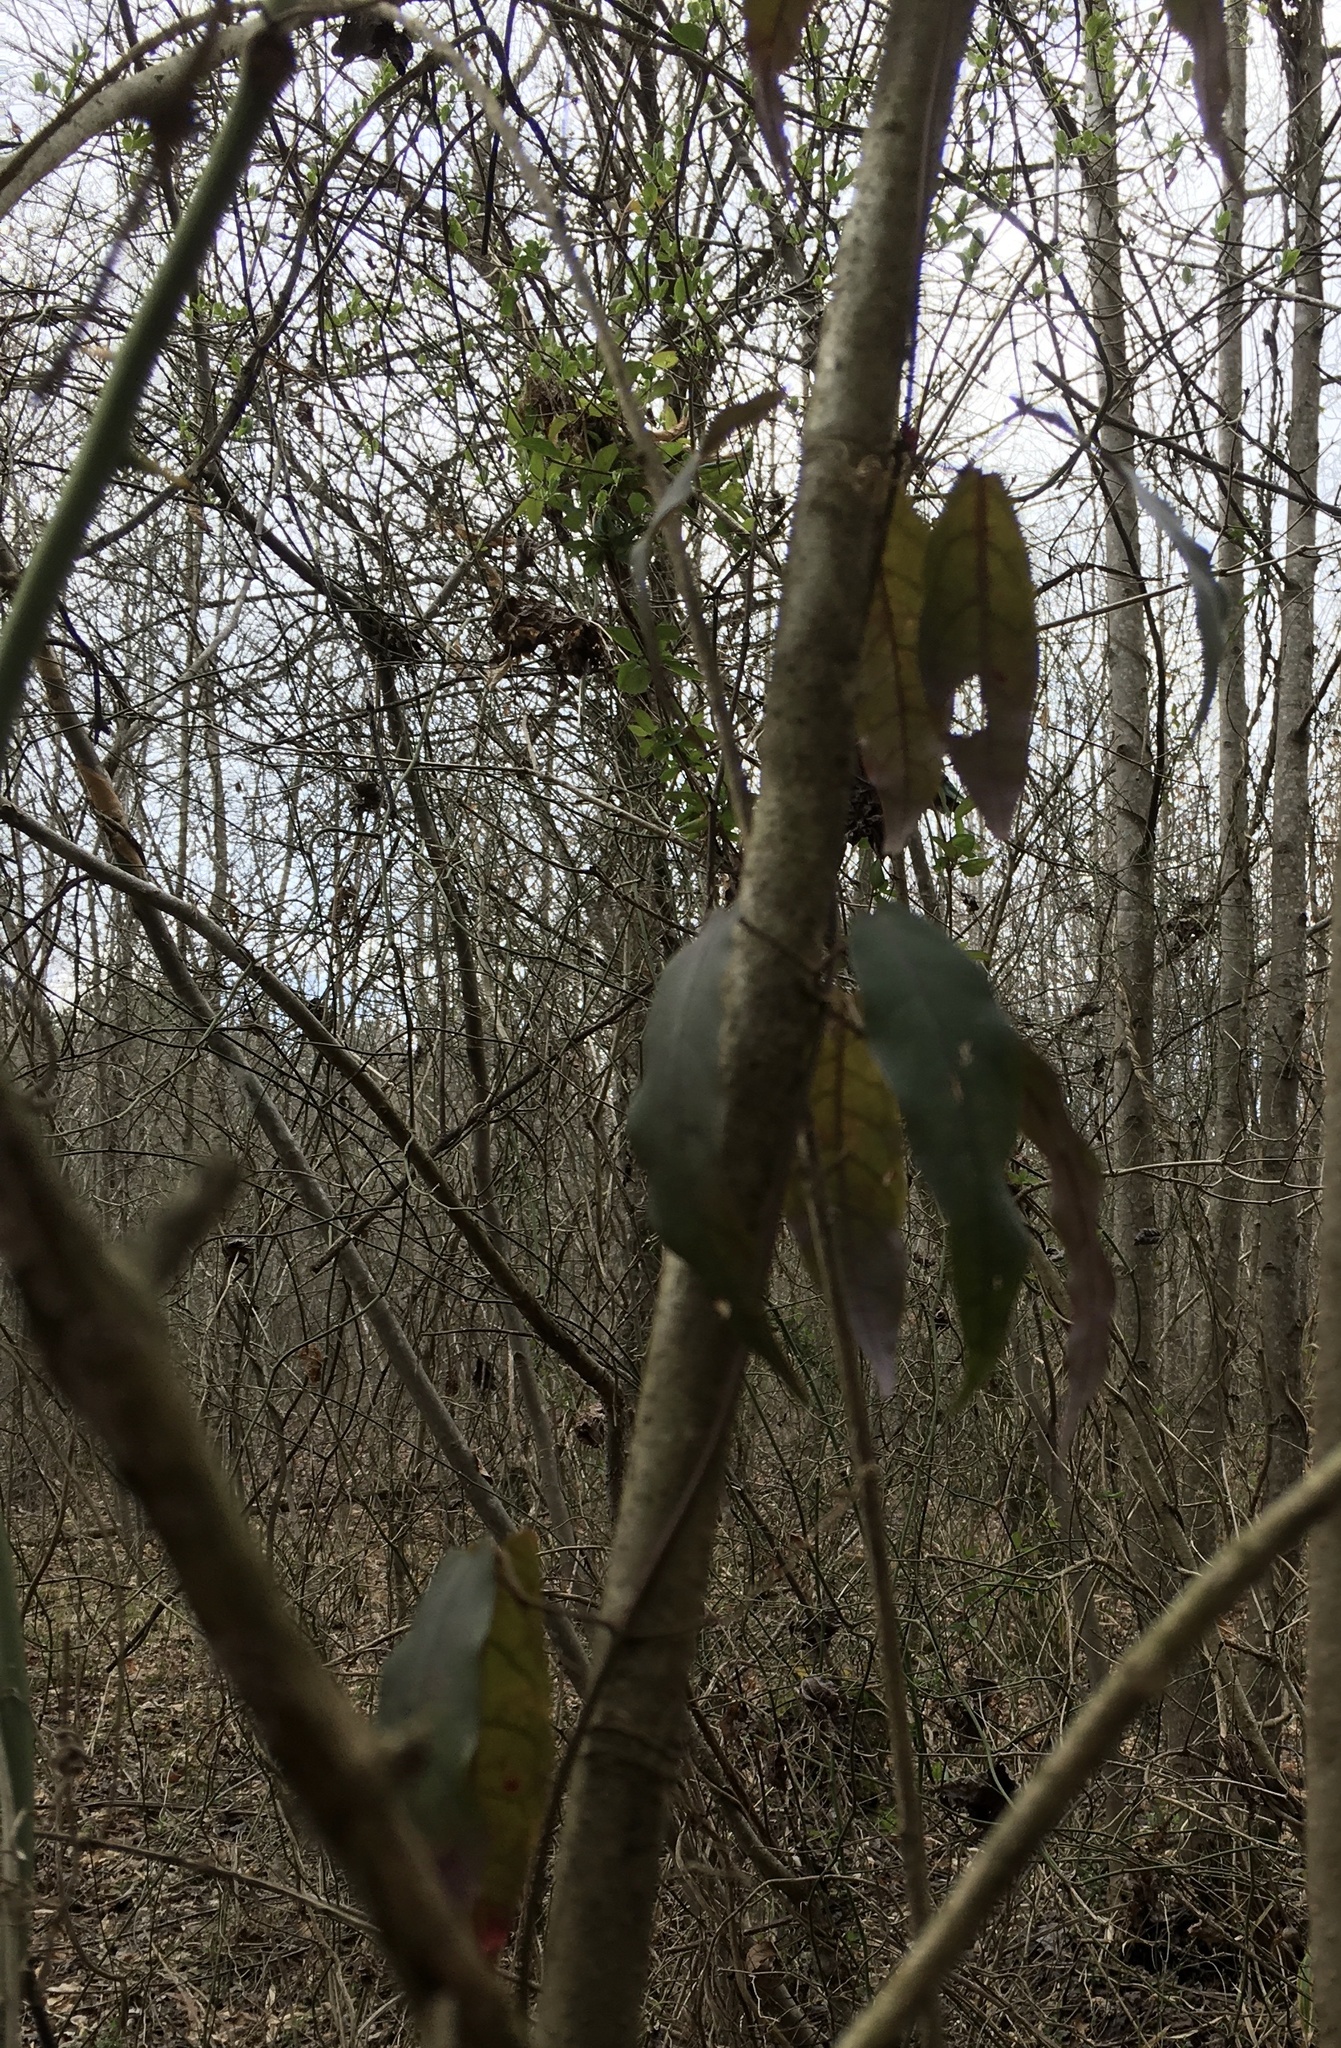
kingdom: Plantae
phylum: Tracheophyta
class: Magnoliopsida
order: Lamiales
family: Bignoniaceae
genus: Bignonia
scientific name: Bignonia capreolata
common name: Crossvine
